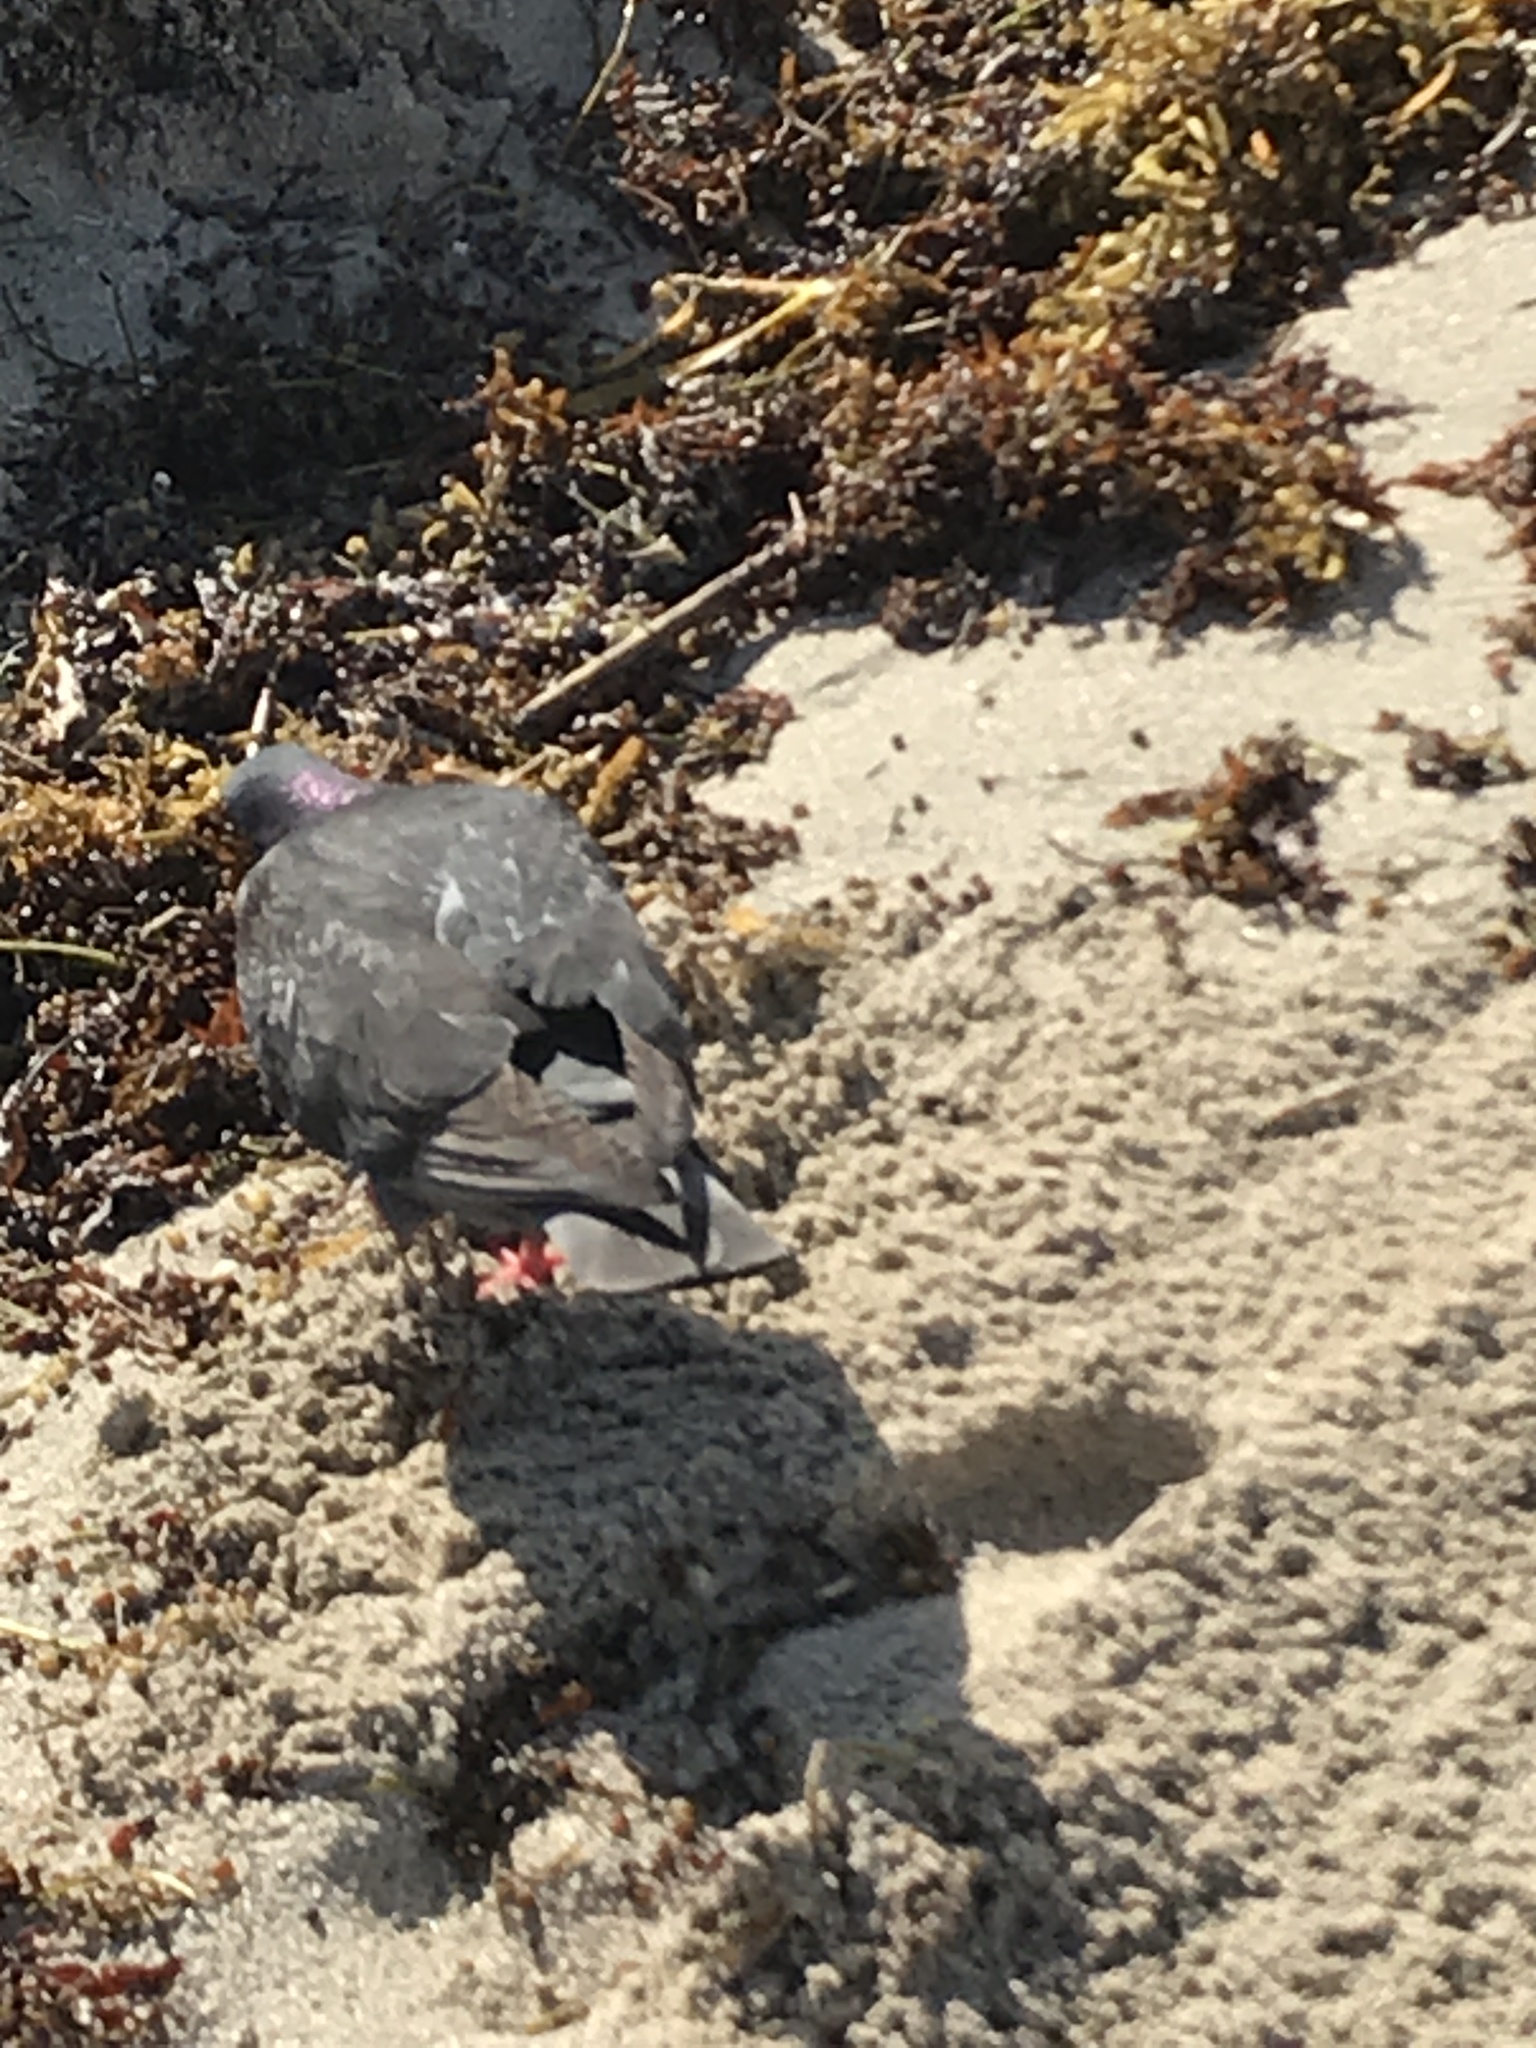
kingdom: Animalia
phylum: Chordata
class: Aves
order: Columbiformes
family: Columbidae
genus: Columba
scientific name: Columba livia
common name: Rock pigeon
